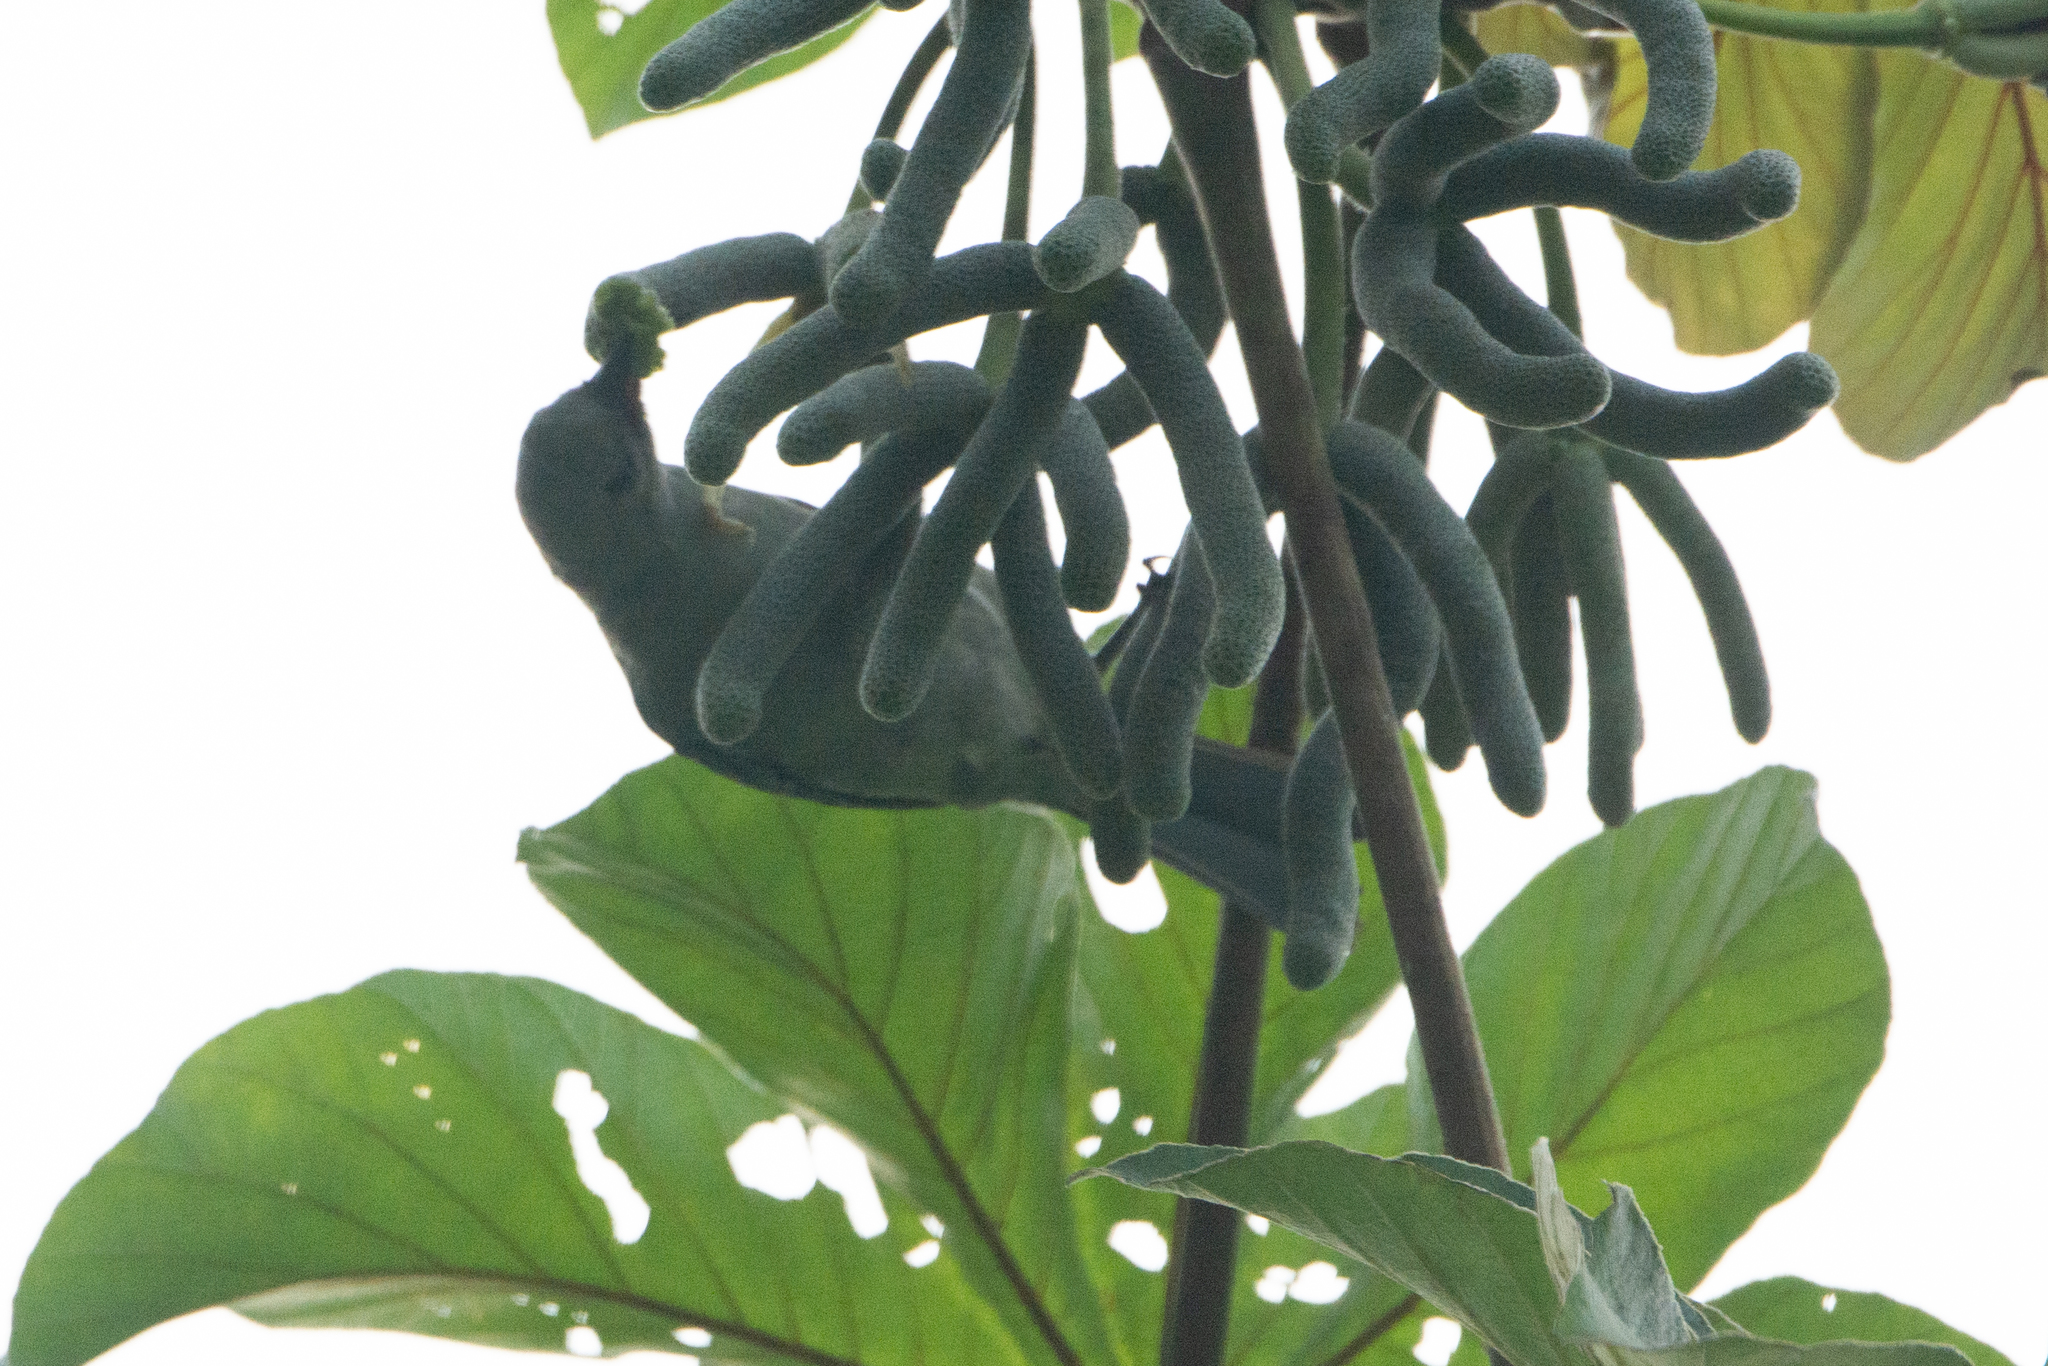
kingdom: Animalia
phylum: Chordata
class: Aves
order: Passeriformes
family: Thraupidae
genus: Thraupis
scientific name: Thraupis episcopus
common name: Blue-grey tanager
